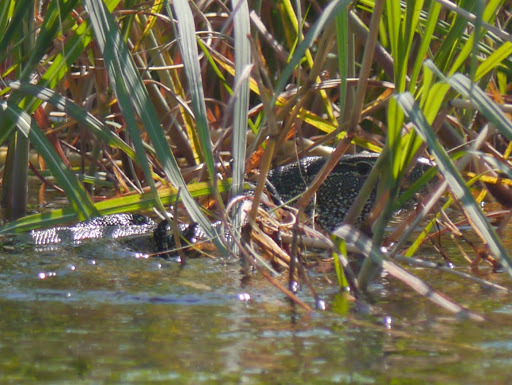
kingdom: Animalia
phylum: Chordata
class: Squamata
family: Varanidae
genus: Varanus
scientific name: Varanus niloticus
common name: Nile monitor
